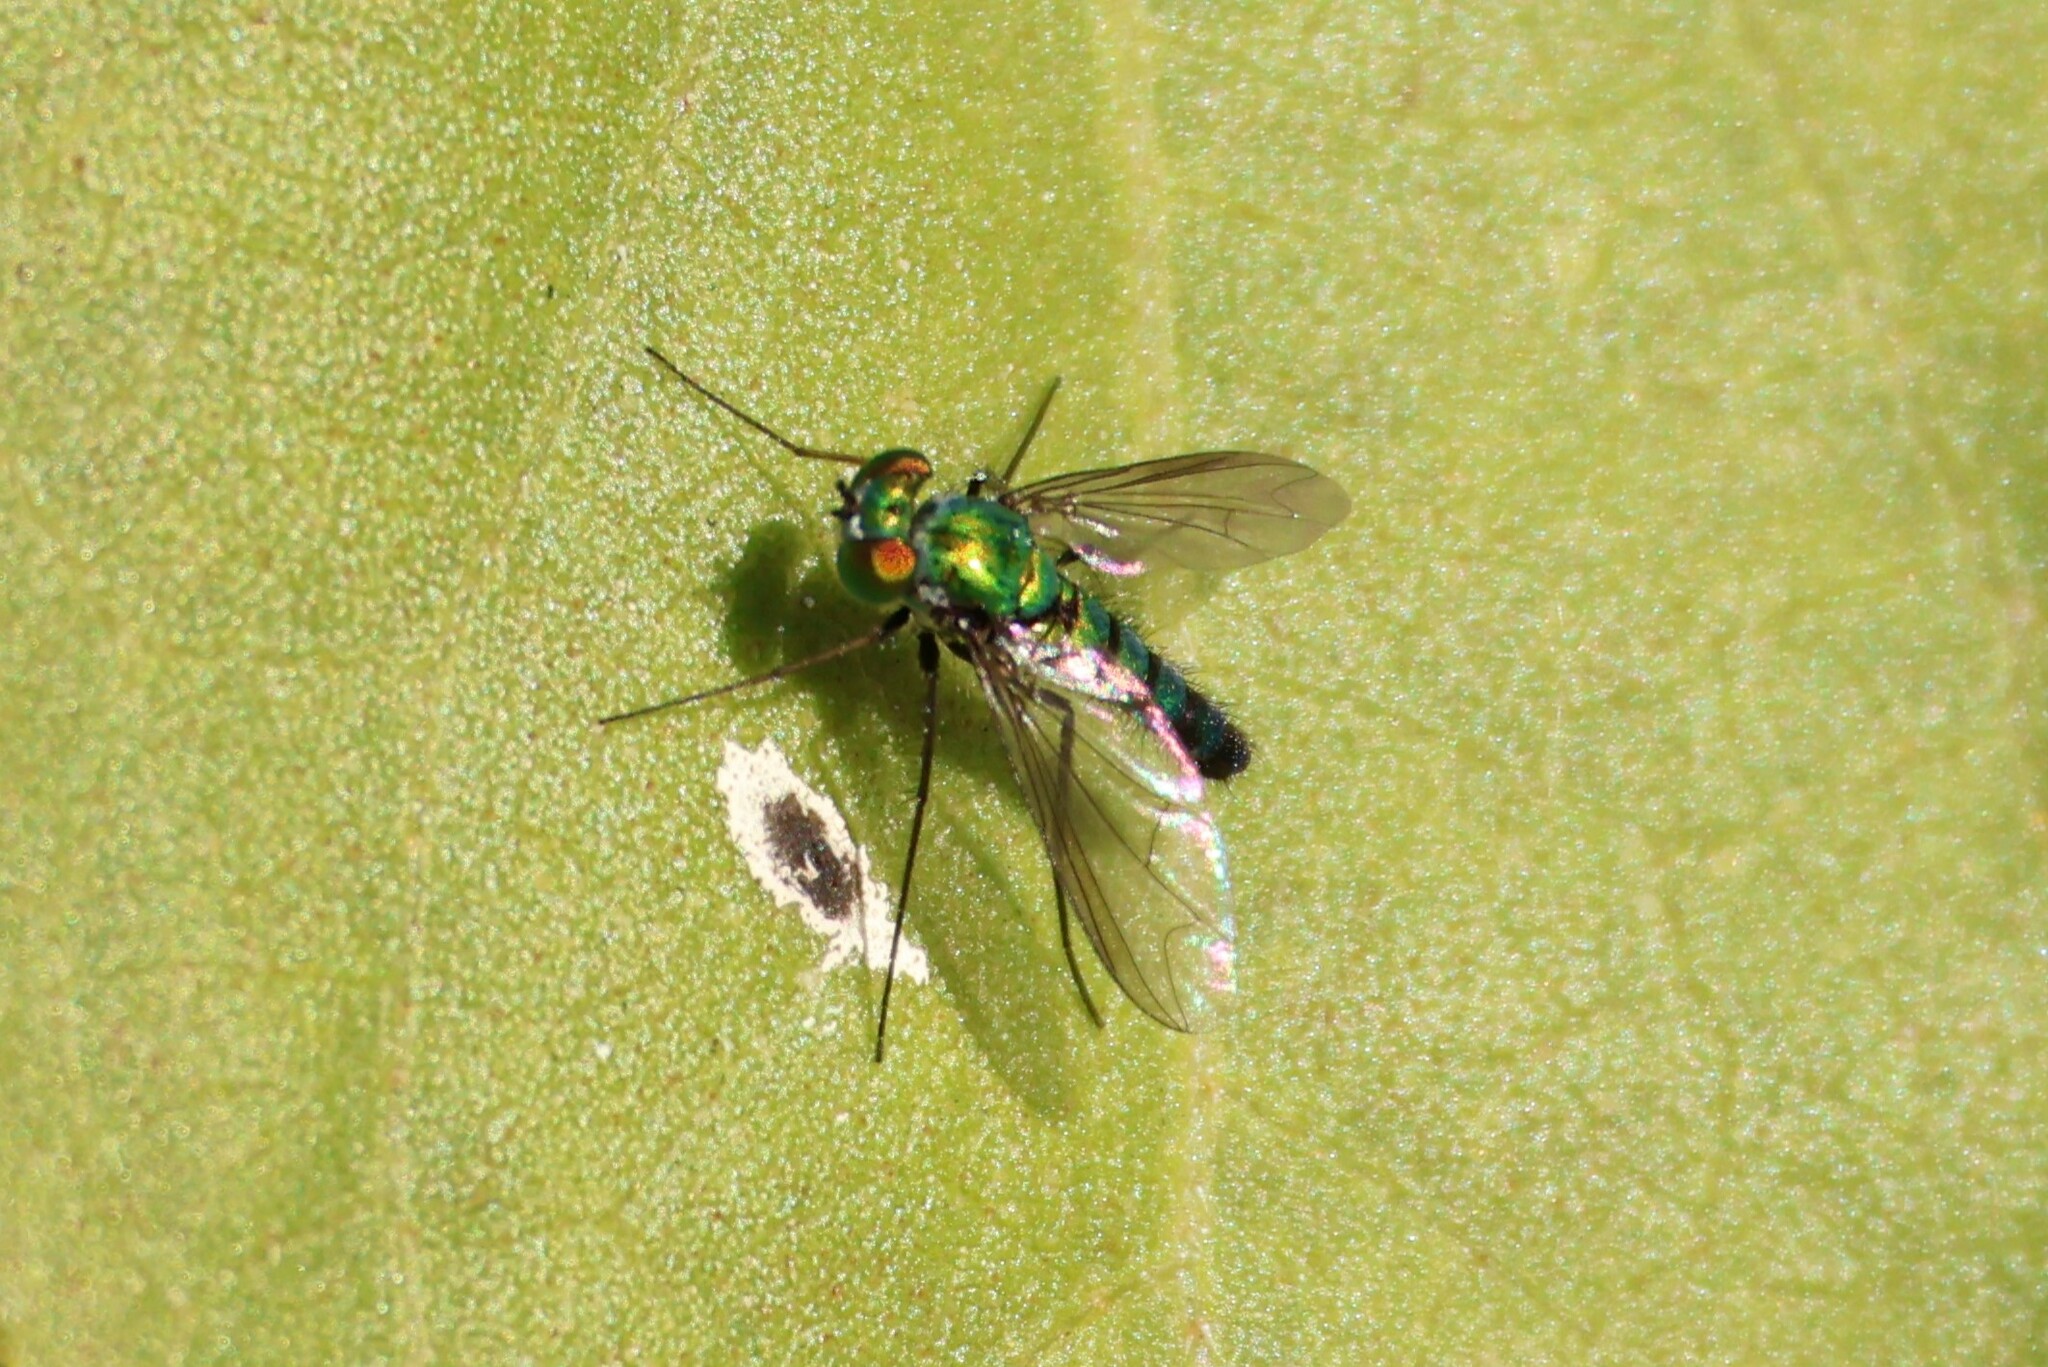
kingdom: Animalia
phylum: Arthropoda
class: Insecta
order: Diptera
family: Dolichopodidae
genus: Condylostylus
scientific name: Condylostylus longicornis
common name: Long-legged fly
